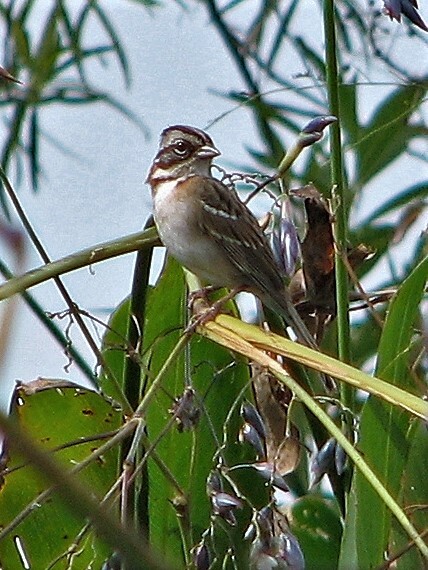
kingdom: Animalia
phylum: Chordata
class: Aves
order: Passeriformes
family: Passerellidae
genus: Zonotrichia
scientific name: Zonotrichia capensis
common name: Rufous-collared sparrow
